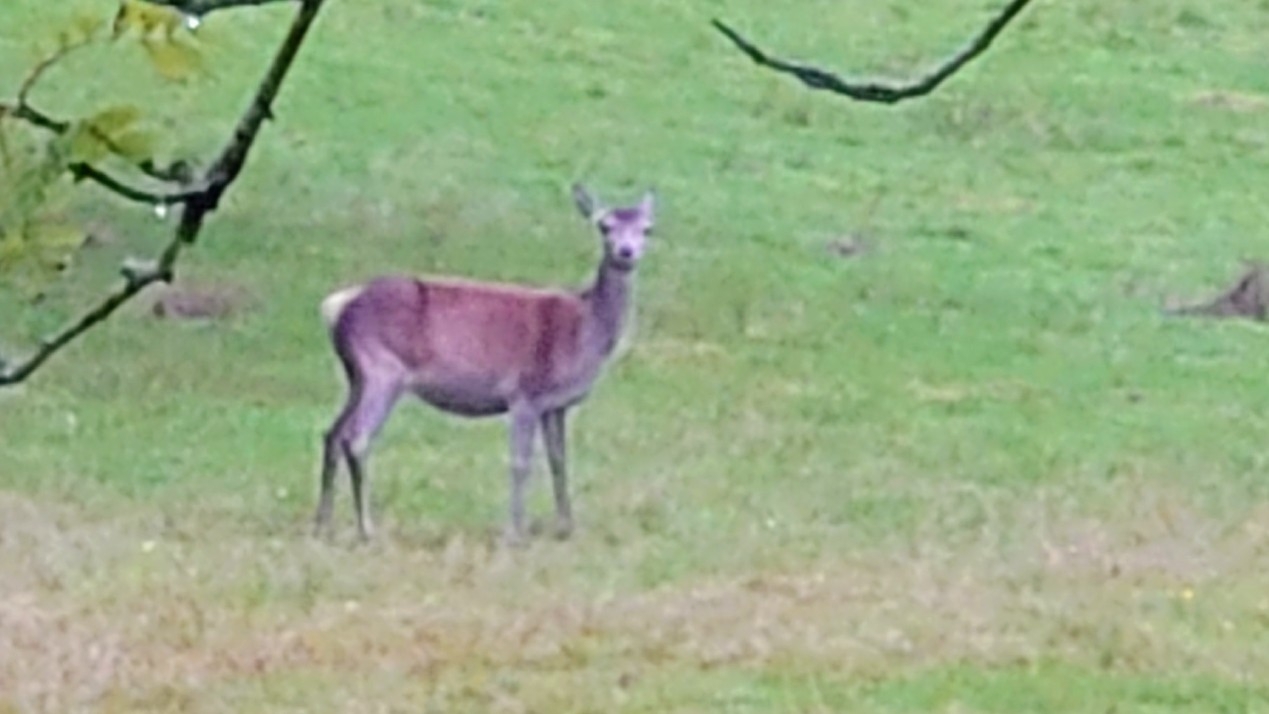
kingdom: Animalia
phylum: Chordata
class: Mammalia
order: Artiodactyla
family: Cervidae
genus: Cervus
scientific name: Cervus elaphus
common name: Red deer
